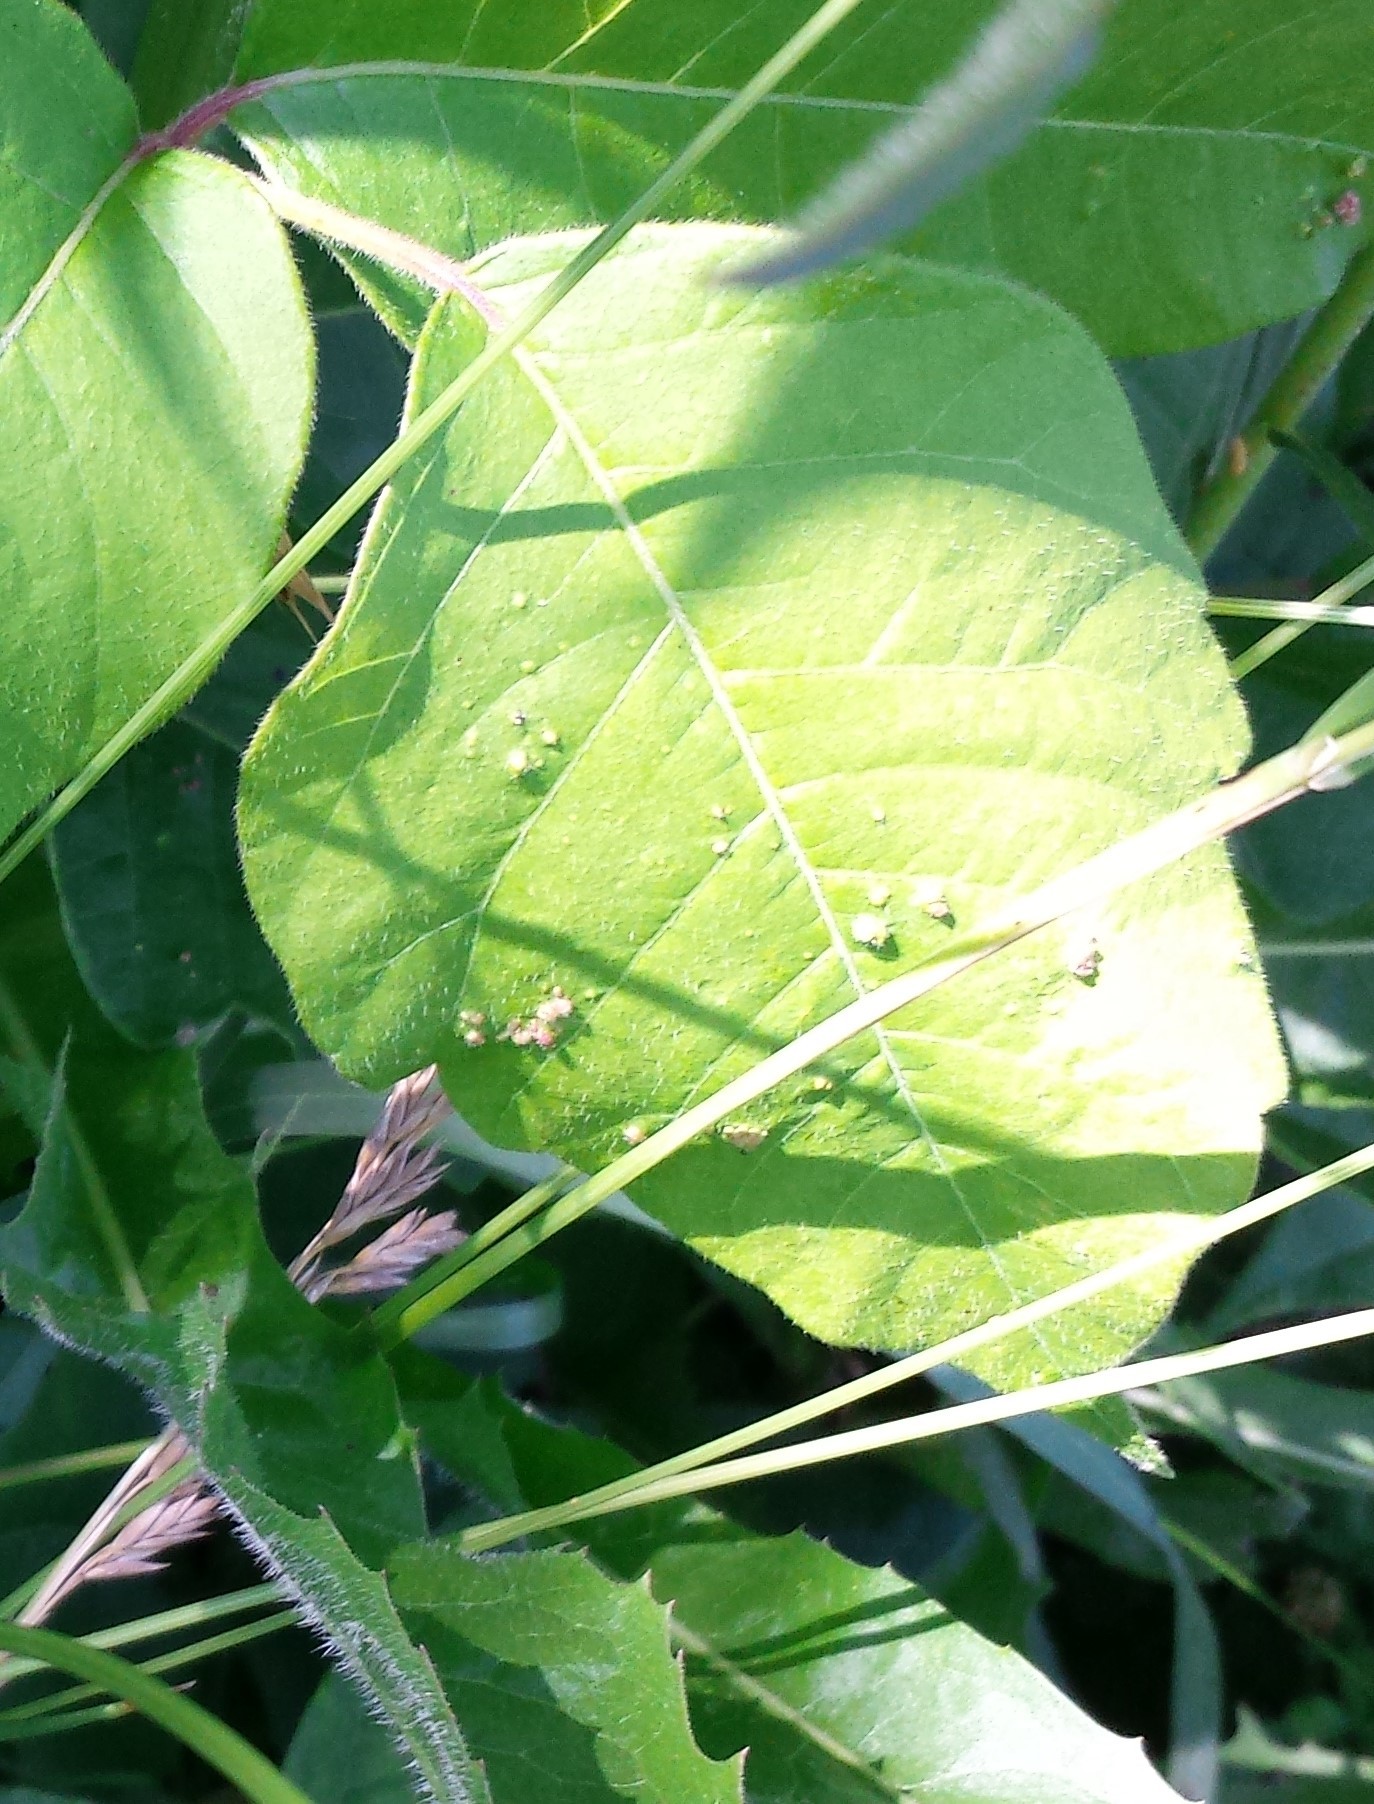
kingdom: Animalia
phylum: Arthropoda
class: Arachnida
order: Trombidiformes
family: Eriophyidae
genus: Aculops
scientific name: Aculops
